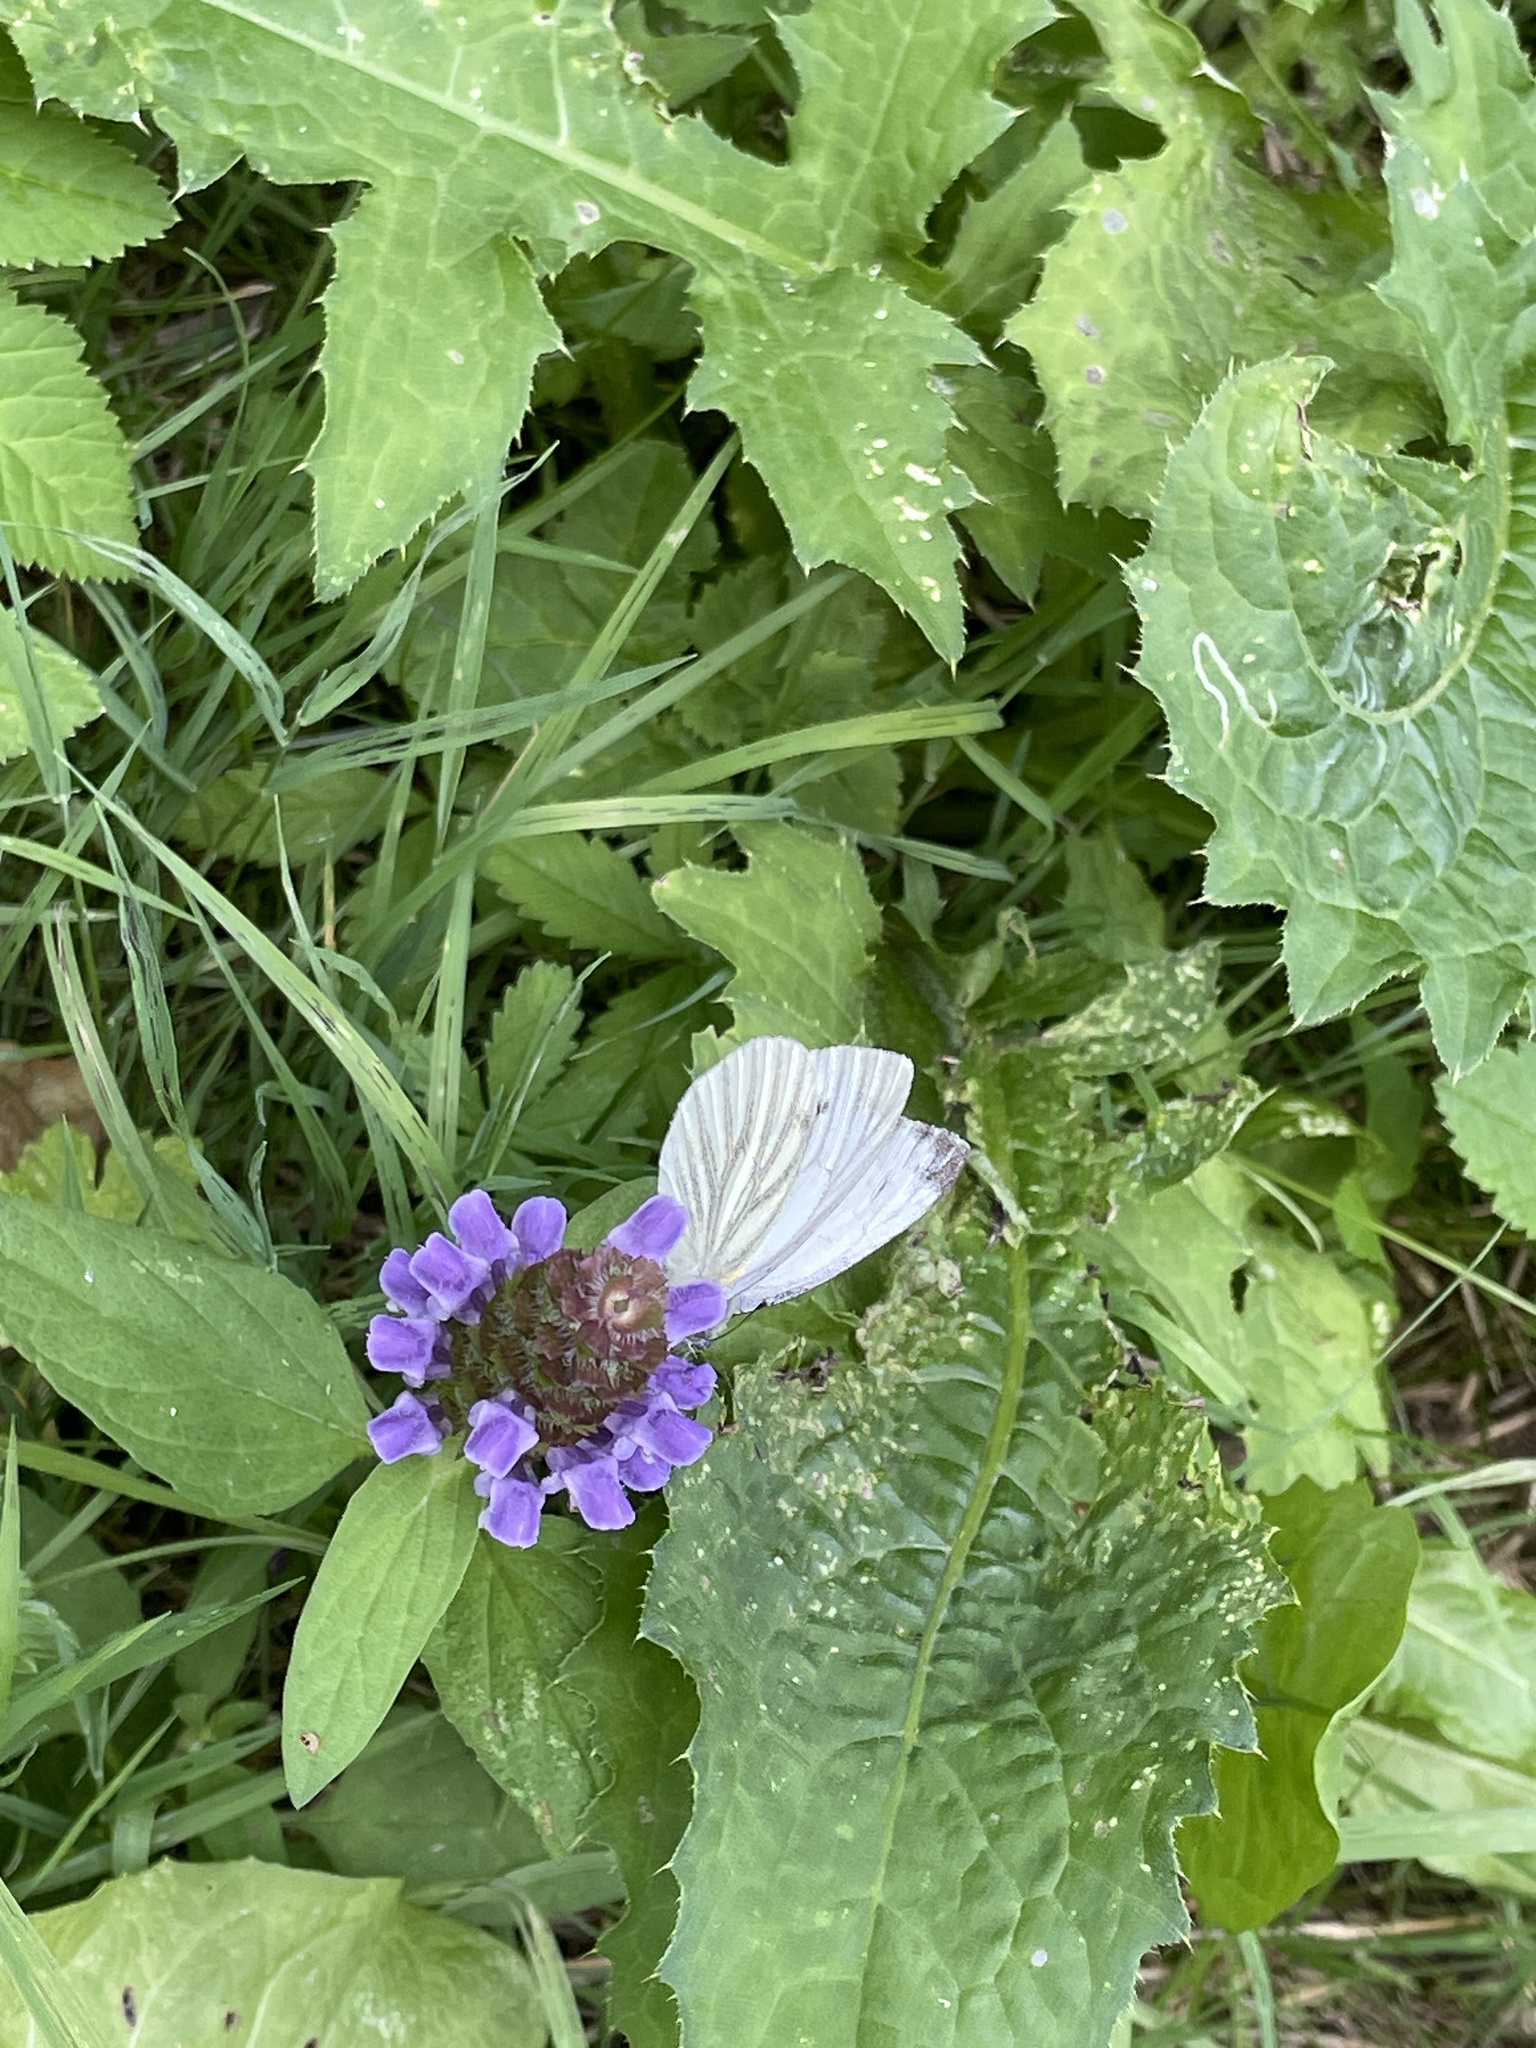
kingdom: Animalia
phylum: Arthropoda
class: Insecta
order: Lepidoptera
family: Pieridae
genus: Pieris
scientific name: Pieris napi
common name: Green-veined white
